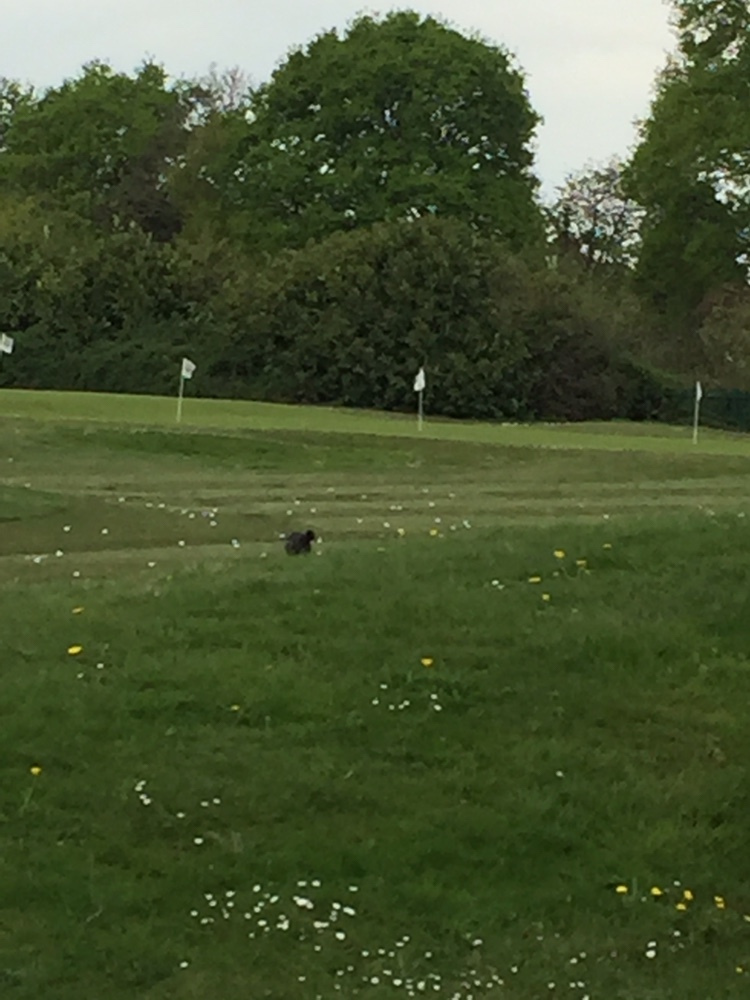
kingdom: Animalia
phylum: Chordata
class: Aves
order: Gruiformes
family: Rallidae
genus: Gallinula
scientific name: Gallinula chloropus
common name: Common moorhen
